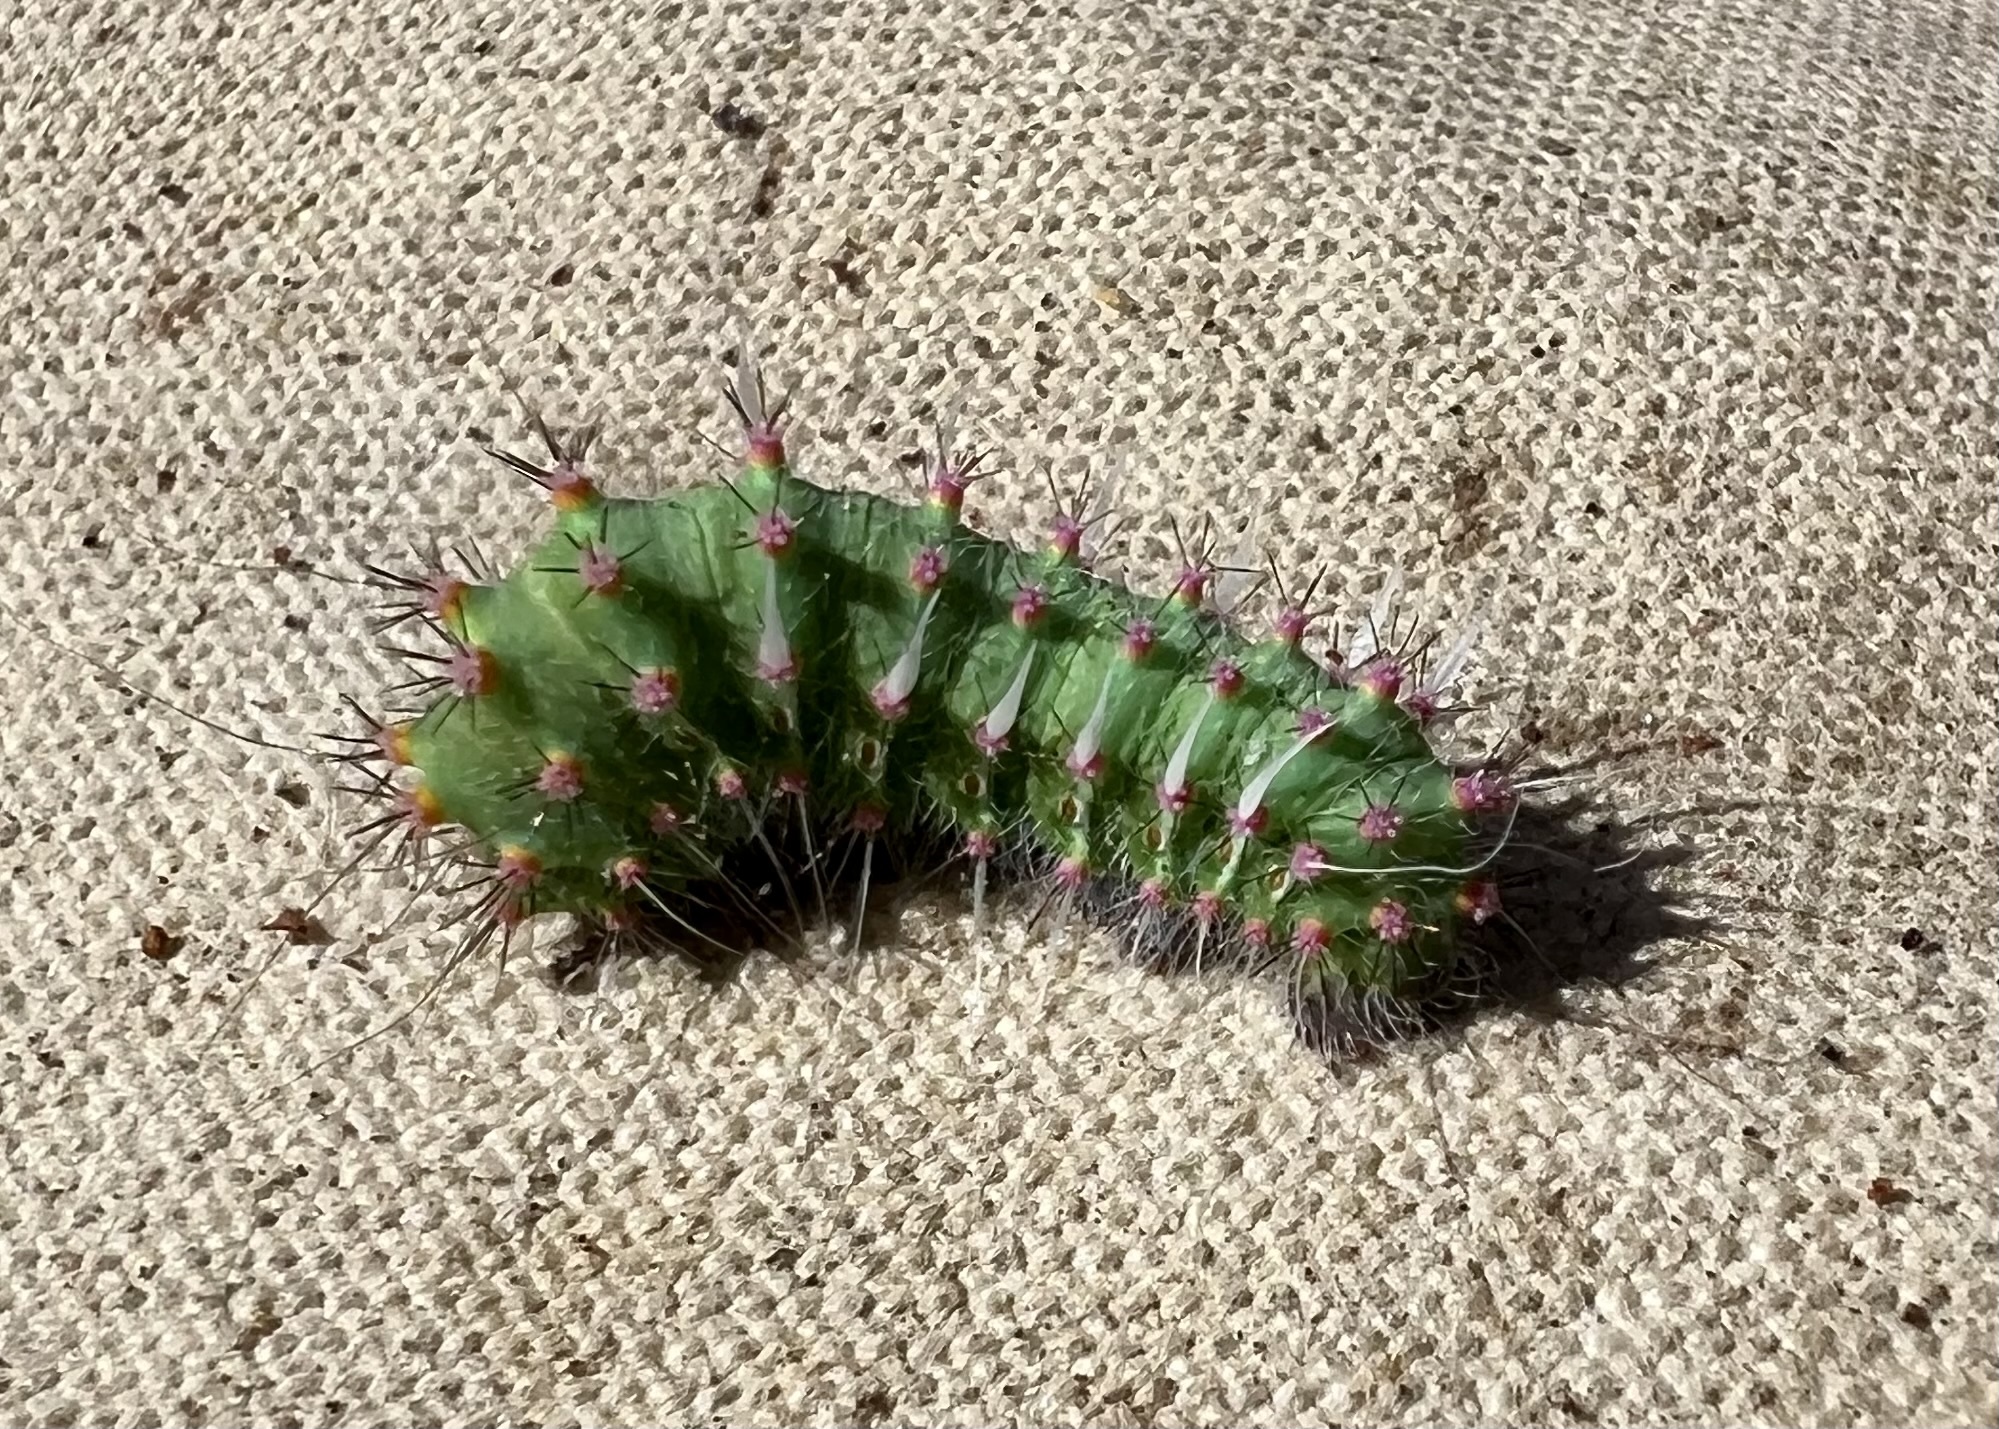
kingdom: Animalia
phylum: Arthropoda
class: Insecta
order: Lepidoptera
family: Saturniidae
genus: Saturnia
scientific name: Saturnia albofasciata
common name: White-streaked saturnia moth
